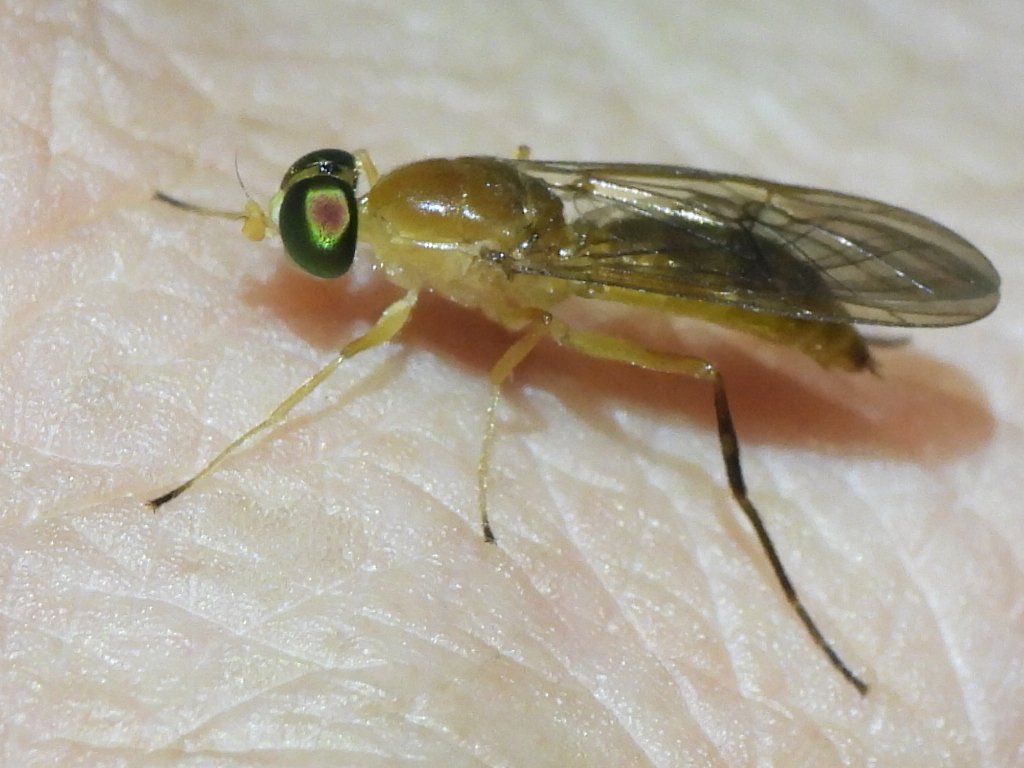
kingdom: Animalia
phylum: Arthropoda
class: Insecta
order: Diptera
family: Stratiomyidae
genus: Ptecticus
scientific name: Ptecticus trivittatus
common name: Compost fly
